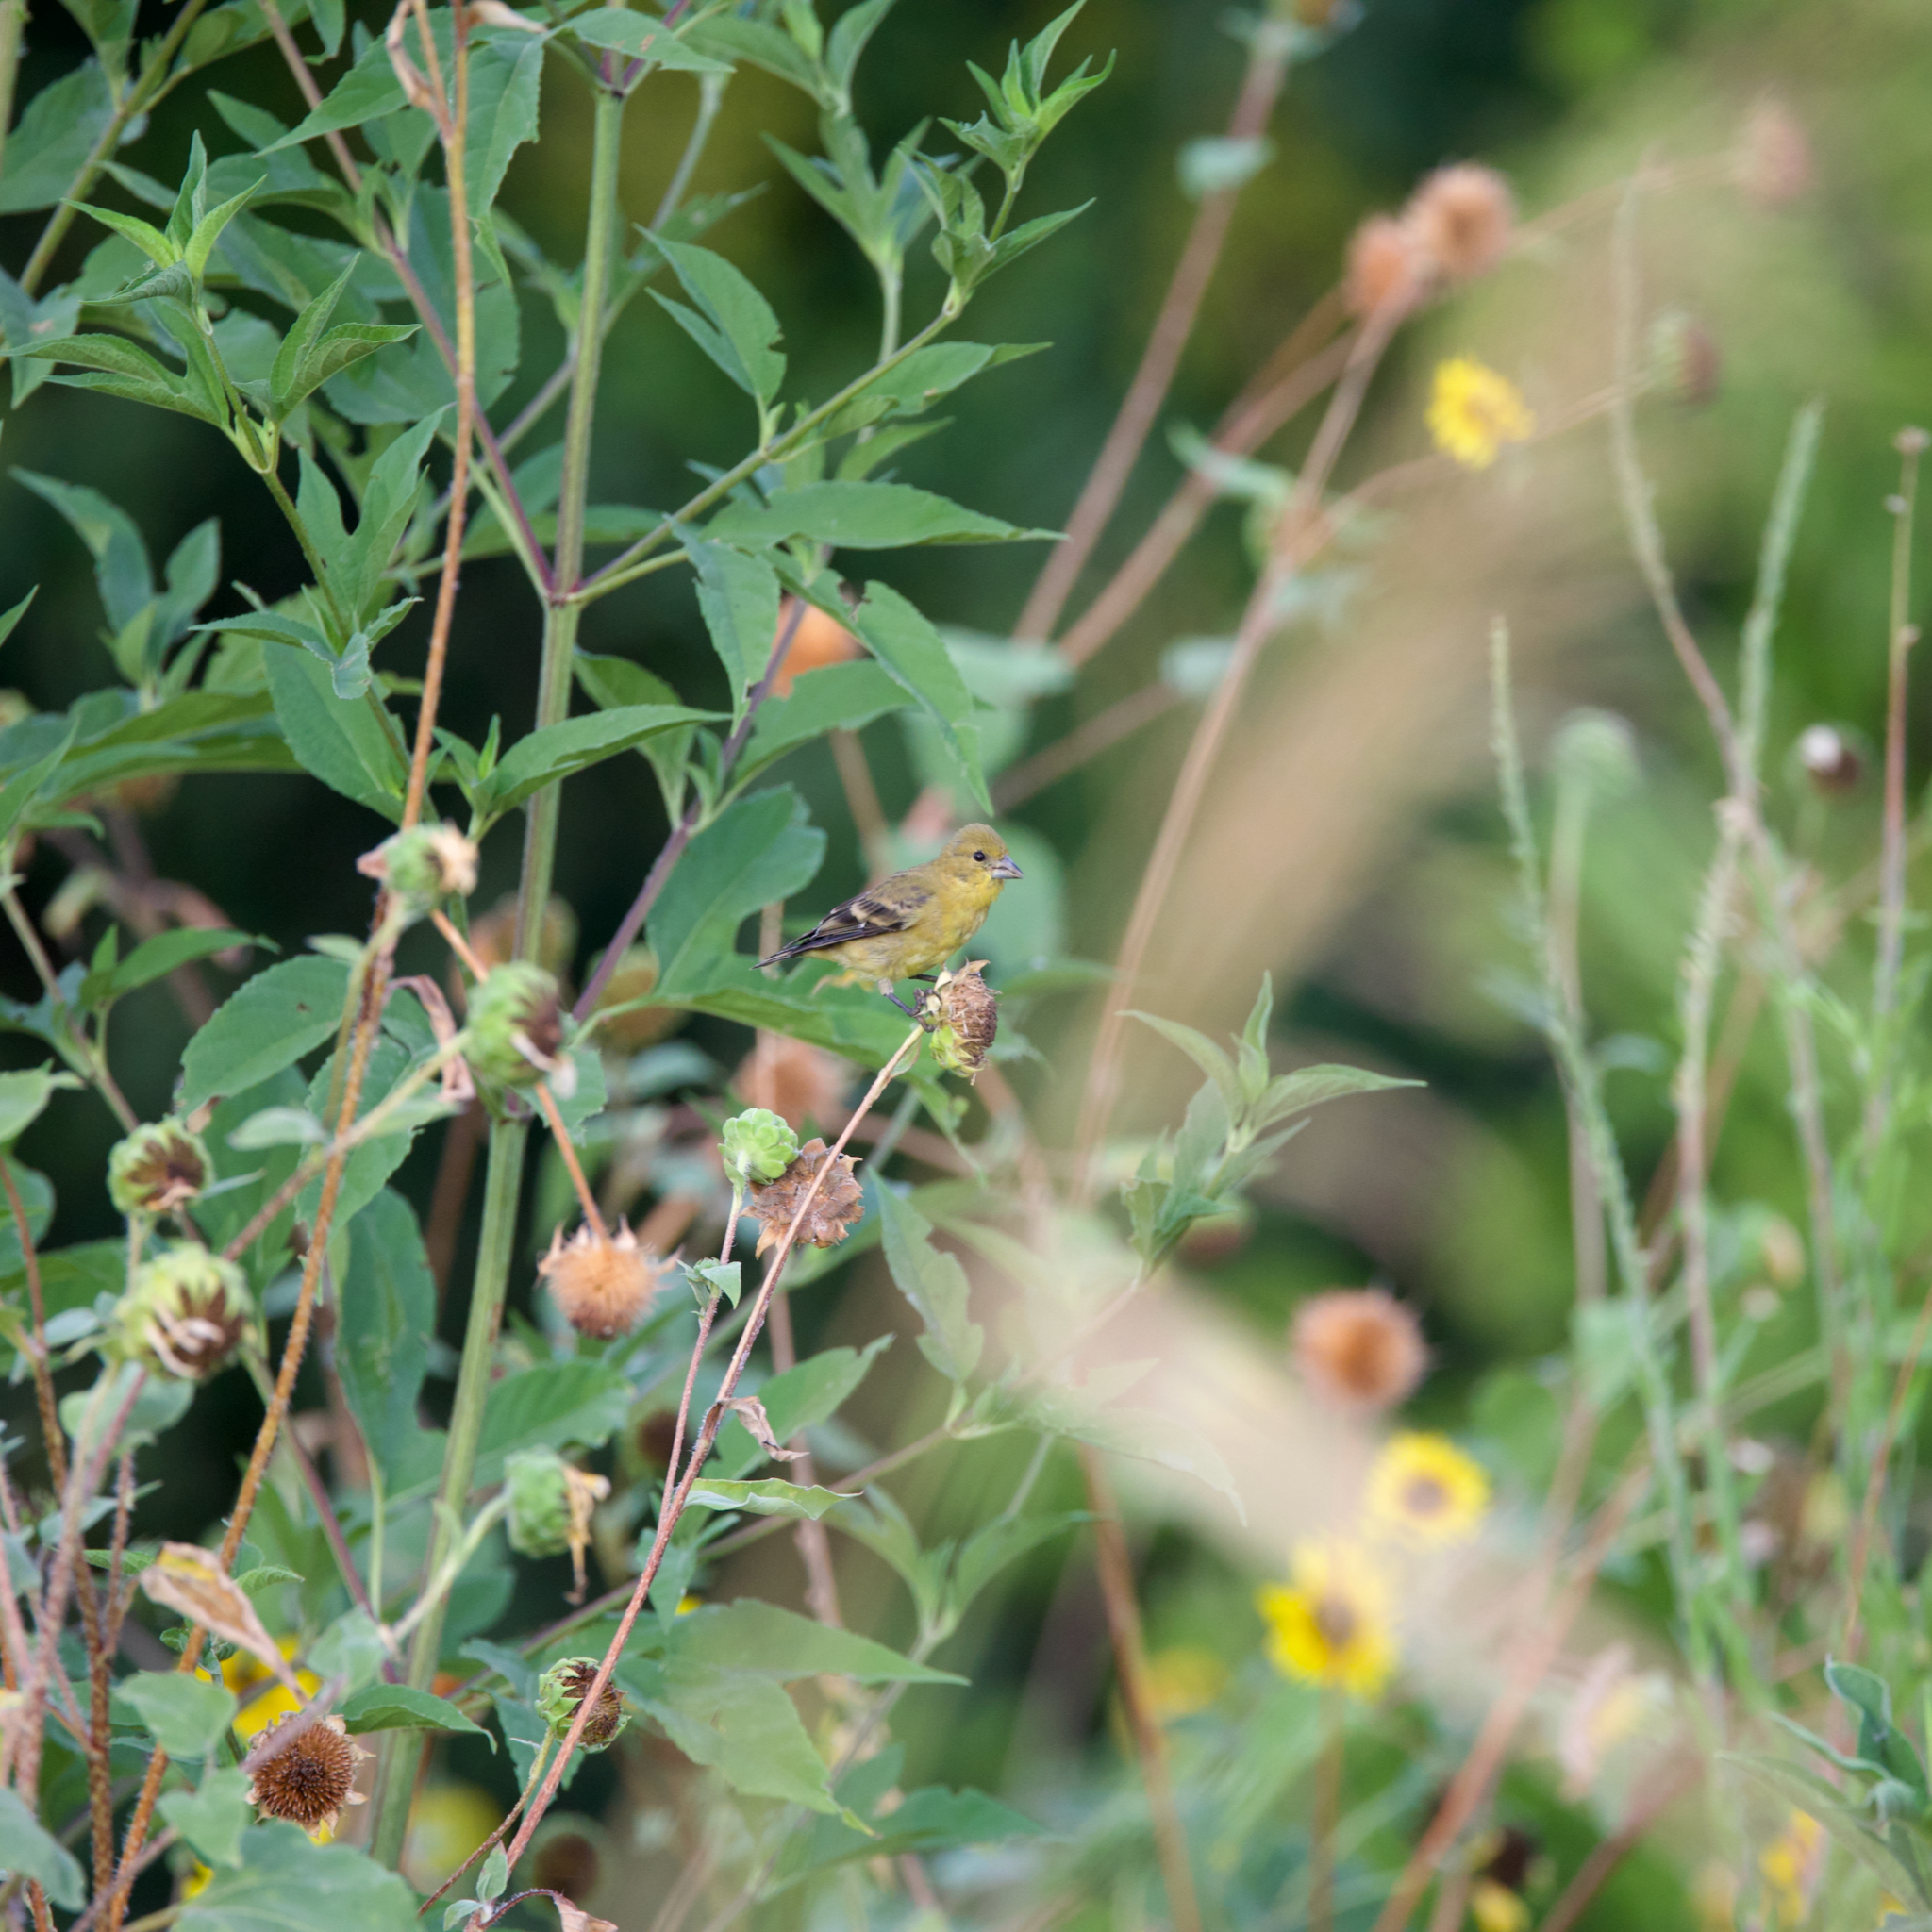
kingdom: Animalia
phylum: Chordata
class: Aves
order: Passeriformes
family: Fringillidae
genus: Spinus
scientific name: Spinus psaltria
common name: Lesser goldfinch
